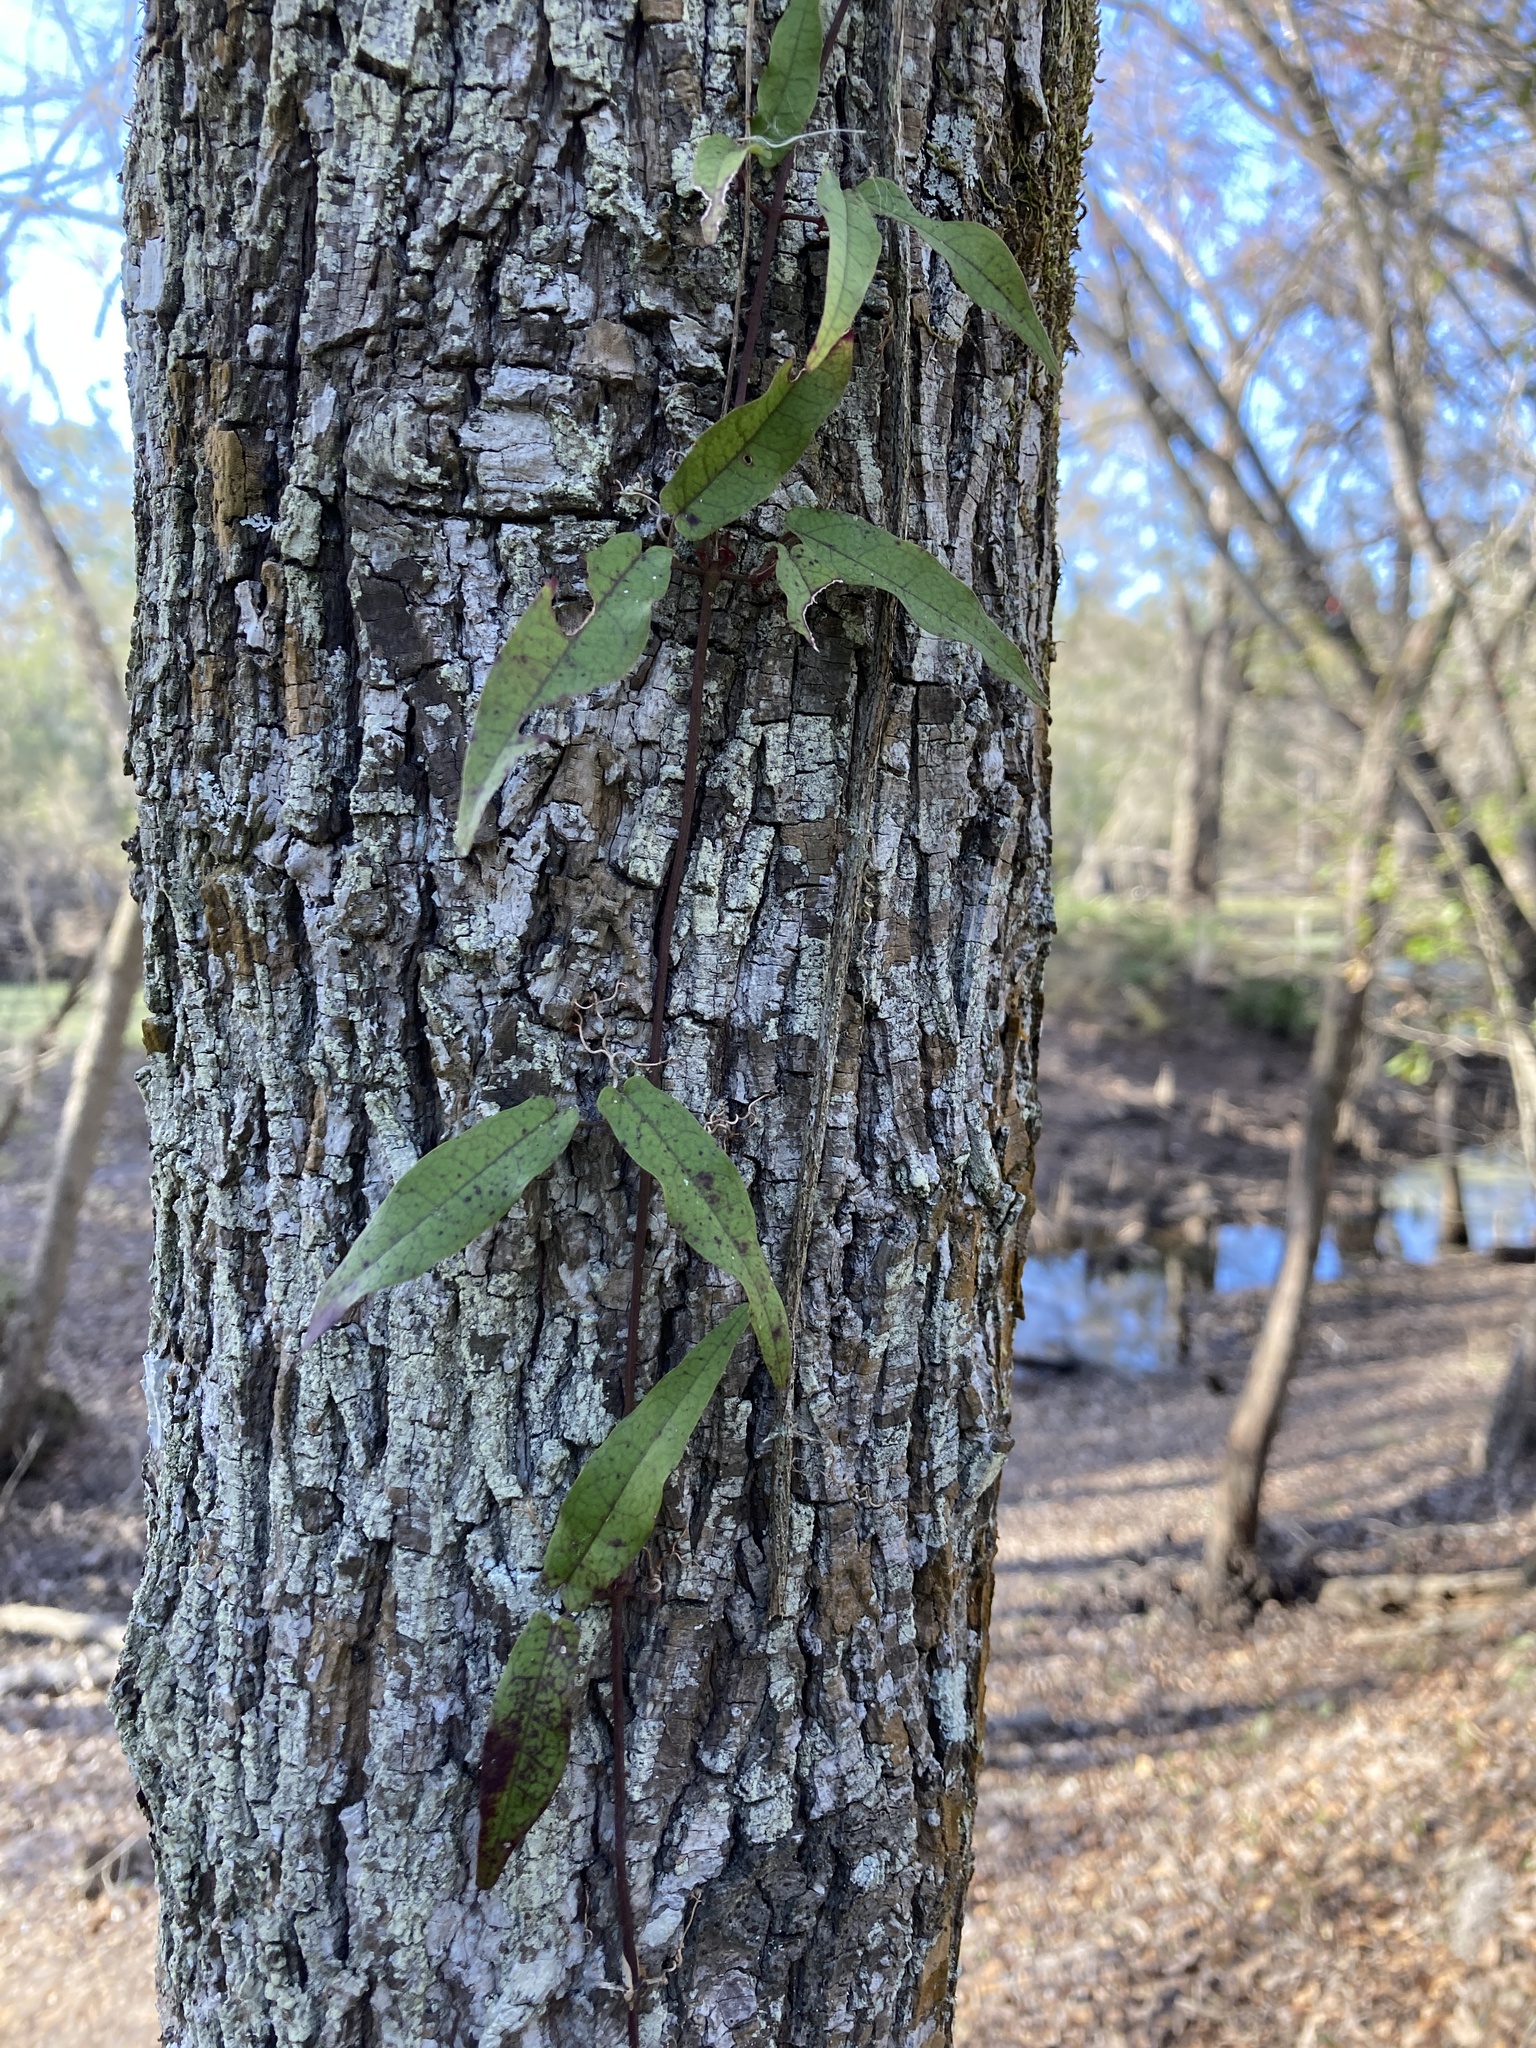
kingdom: Plantae
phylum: Tracheophyta
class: Magnoliopsida
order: Lamiales
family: Bignoniaceae
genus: Bignonia
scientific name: Bignonia capreolata
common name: Crossvine
